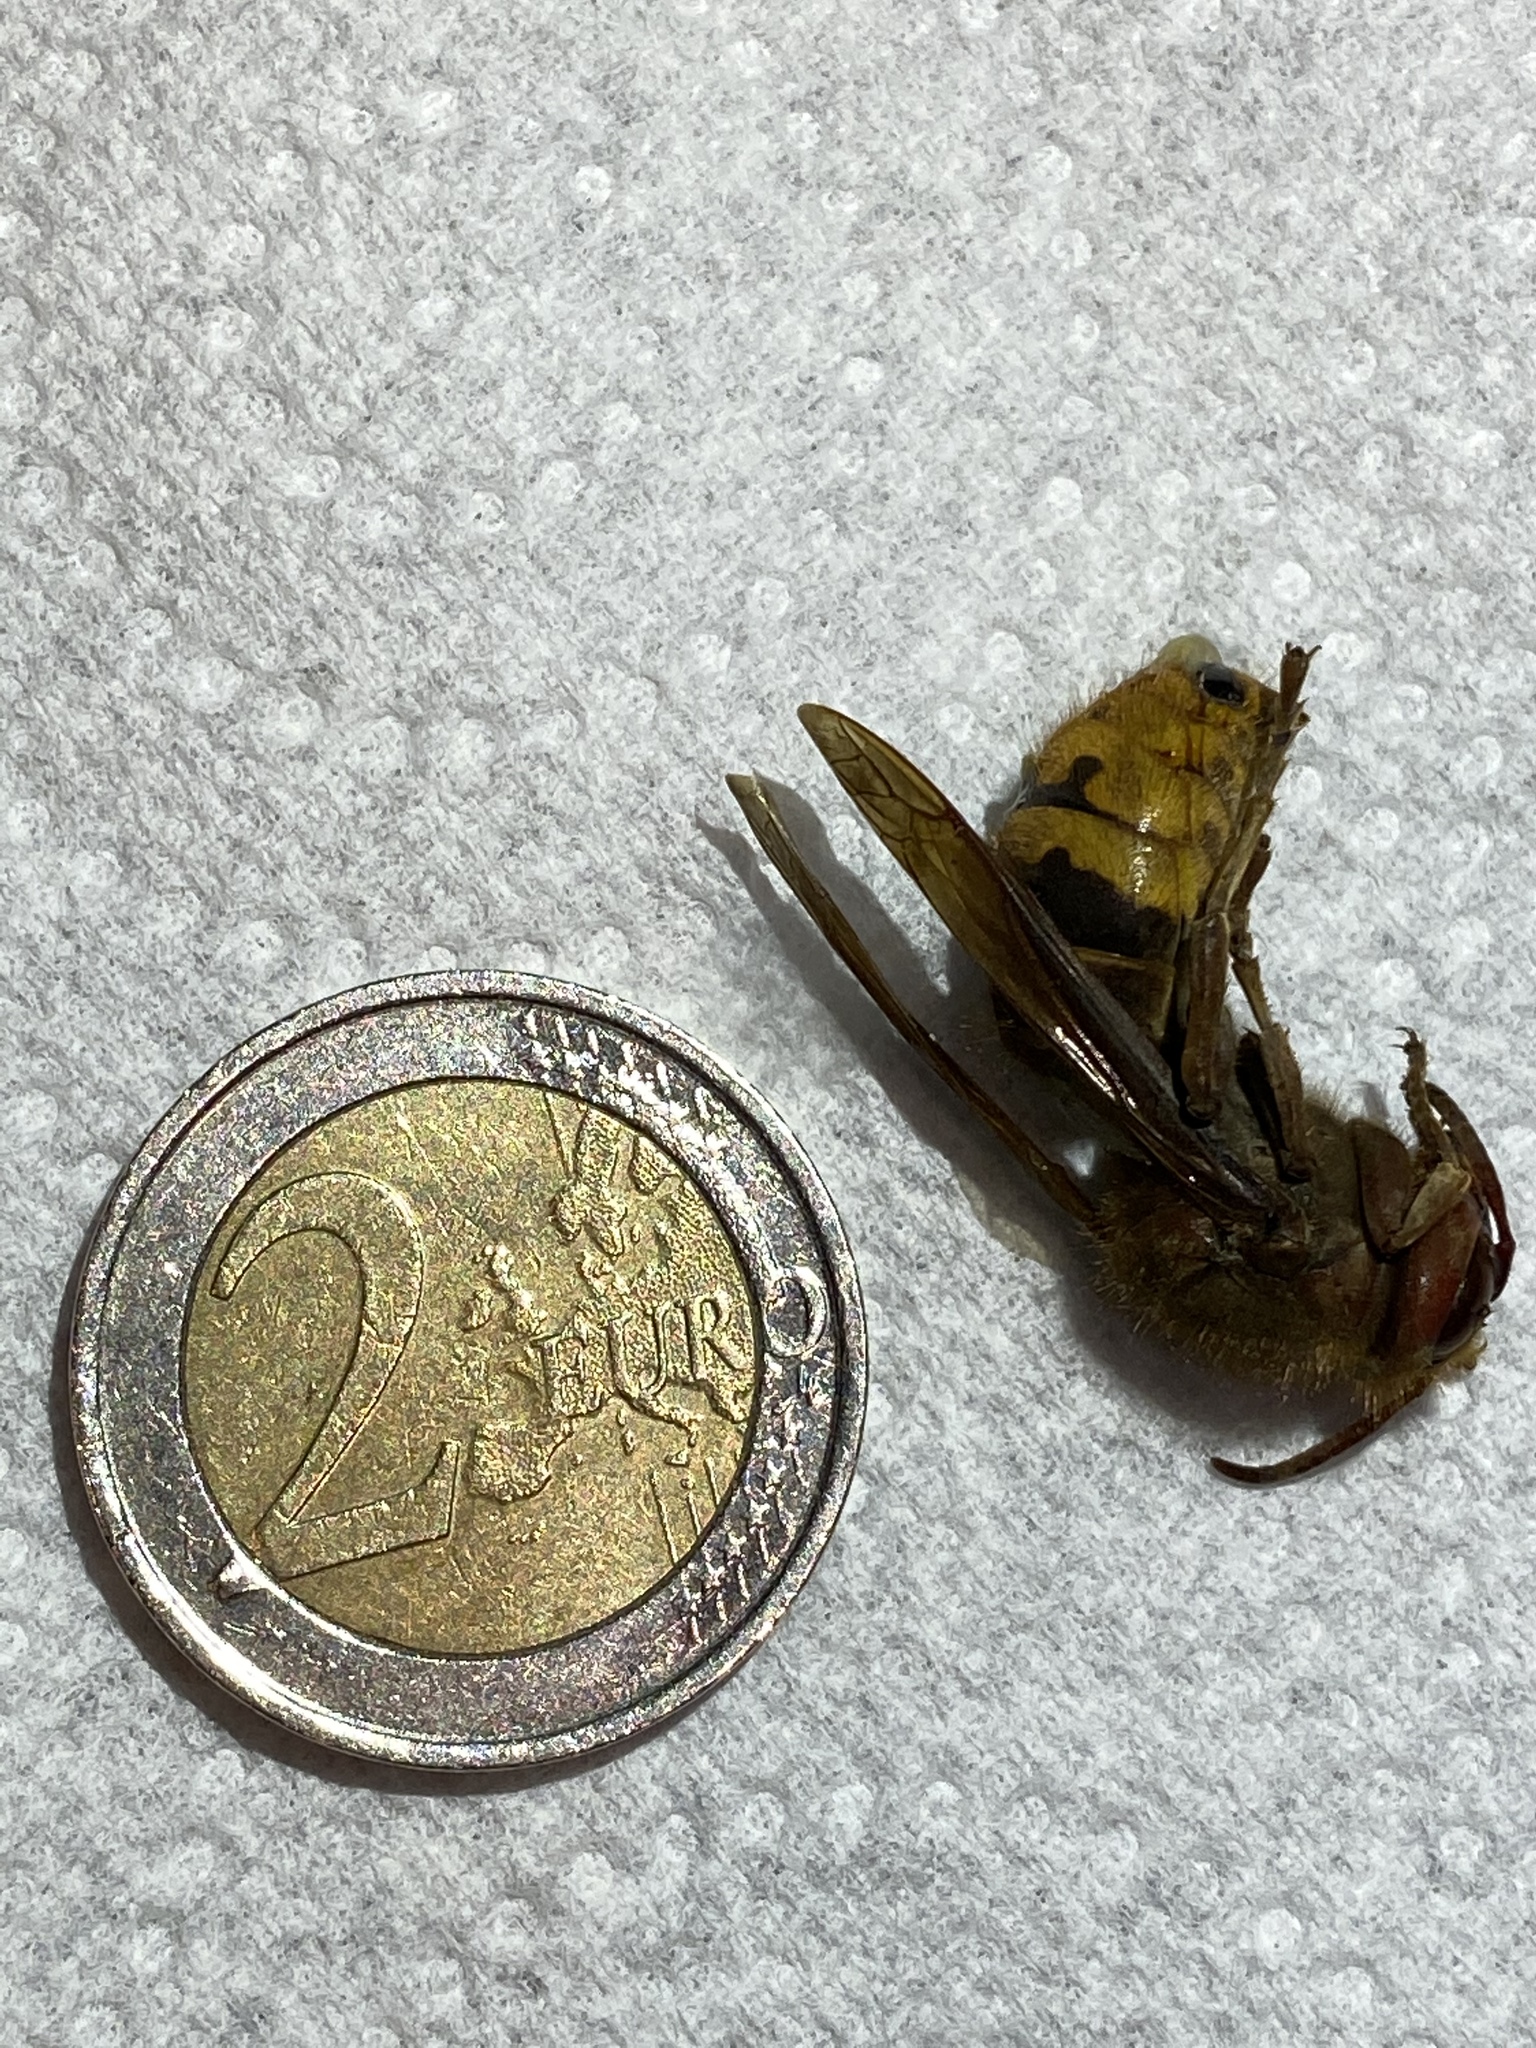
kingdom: Animalia
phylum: Arthropoda
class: Insecta
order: Hymenoptera
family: Vespidae
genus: Vespa
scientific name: Vespa crabro
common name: Hornet
